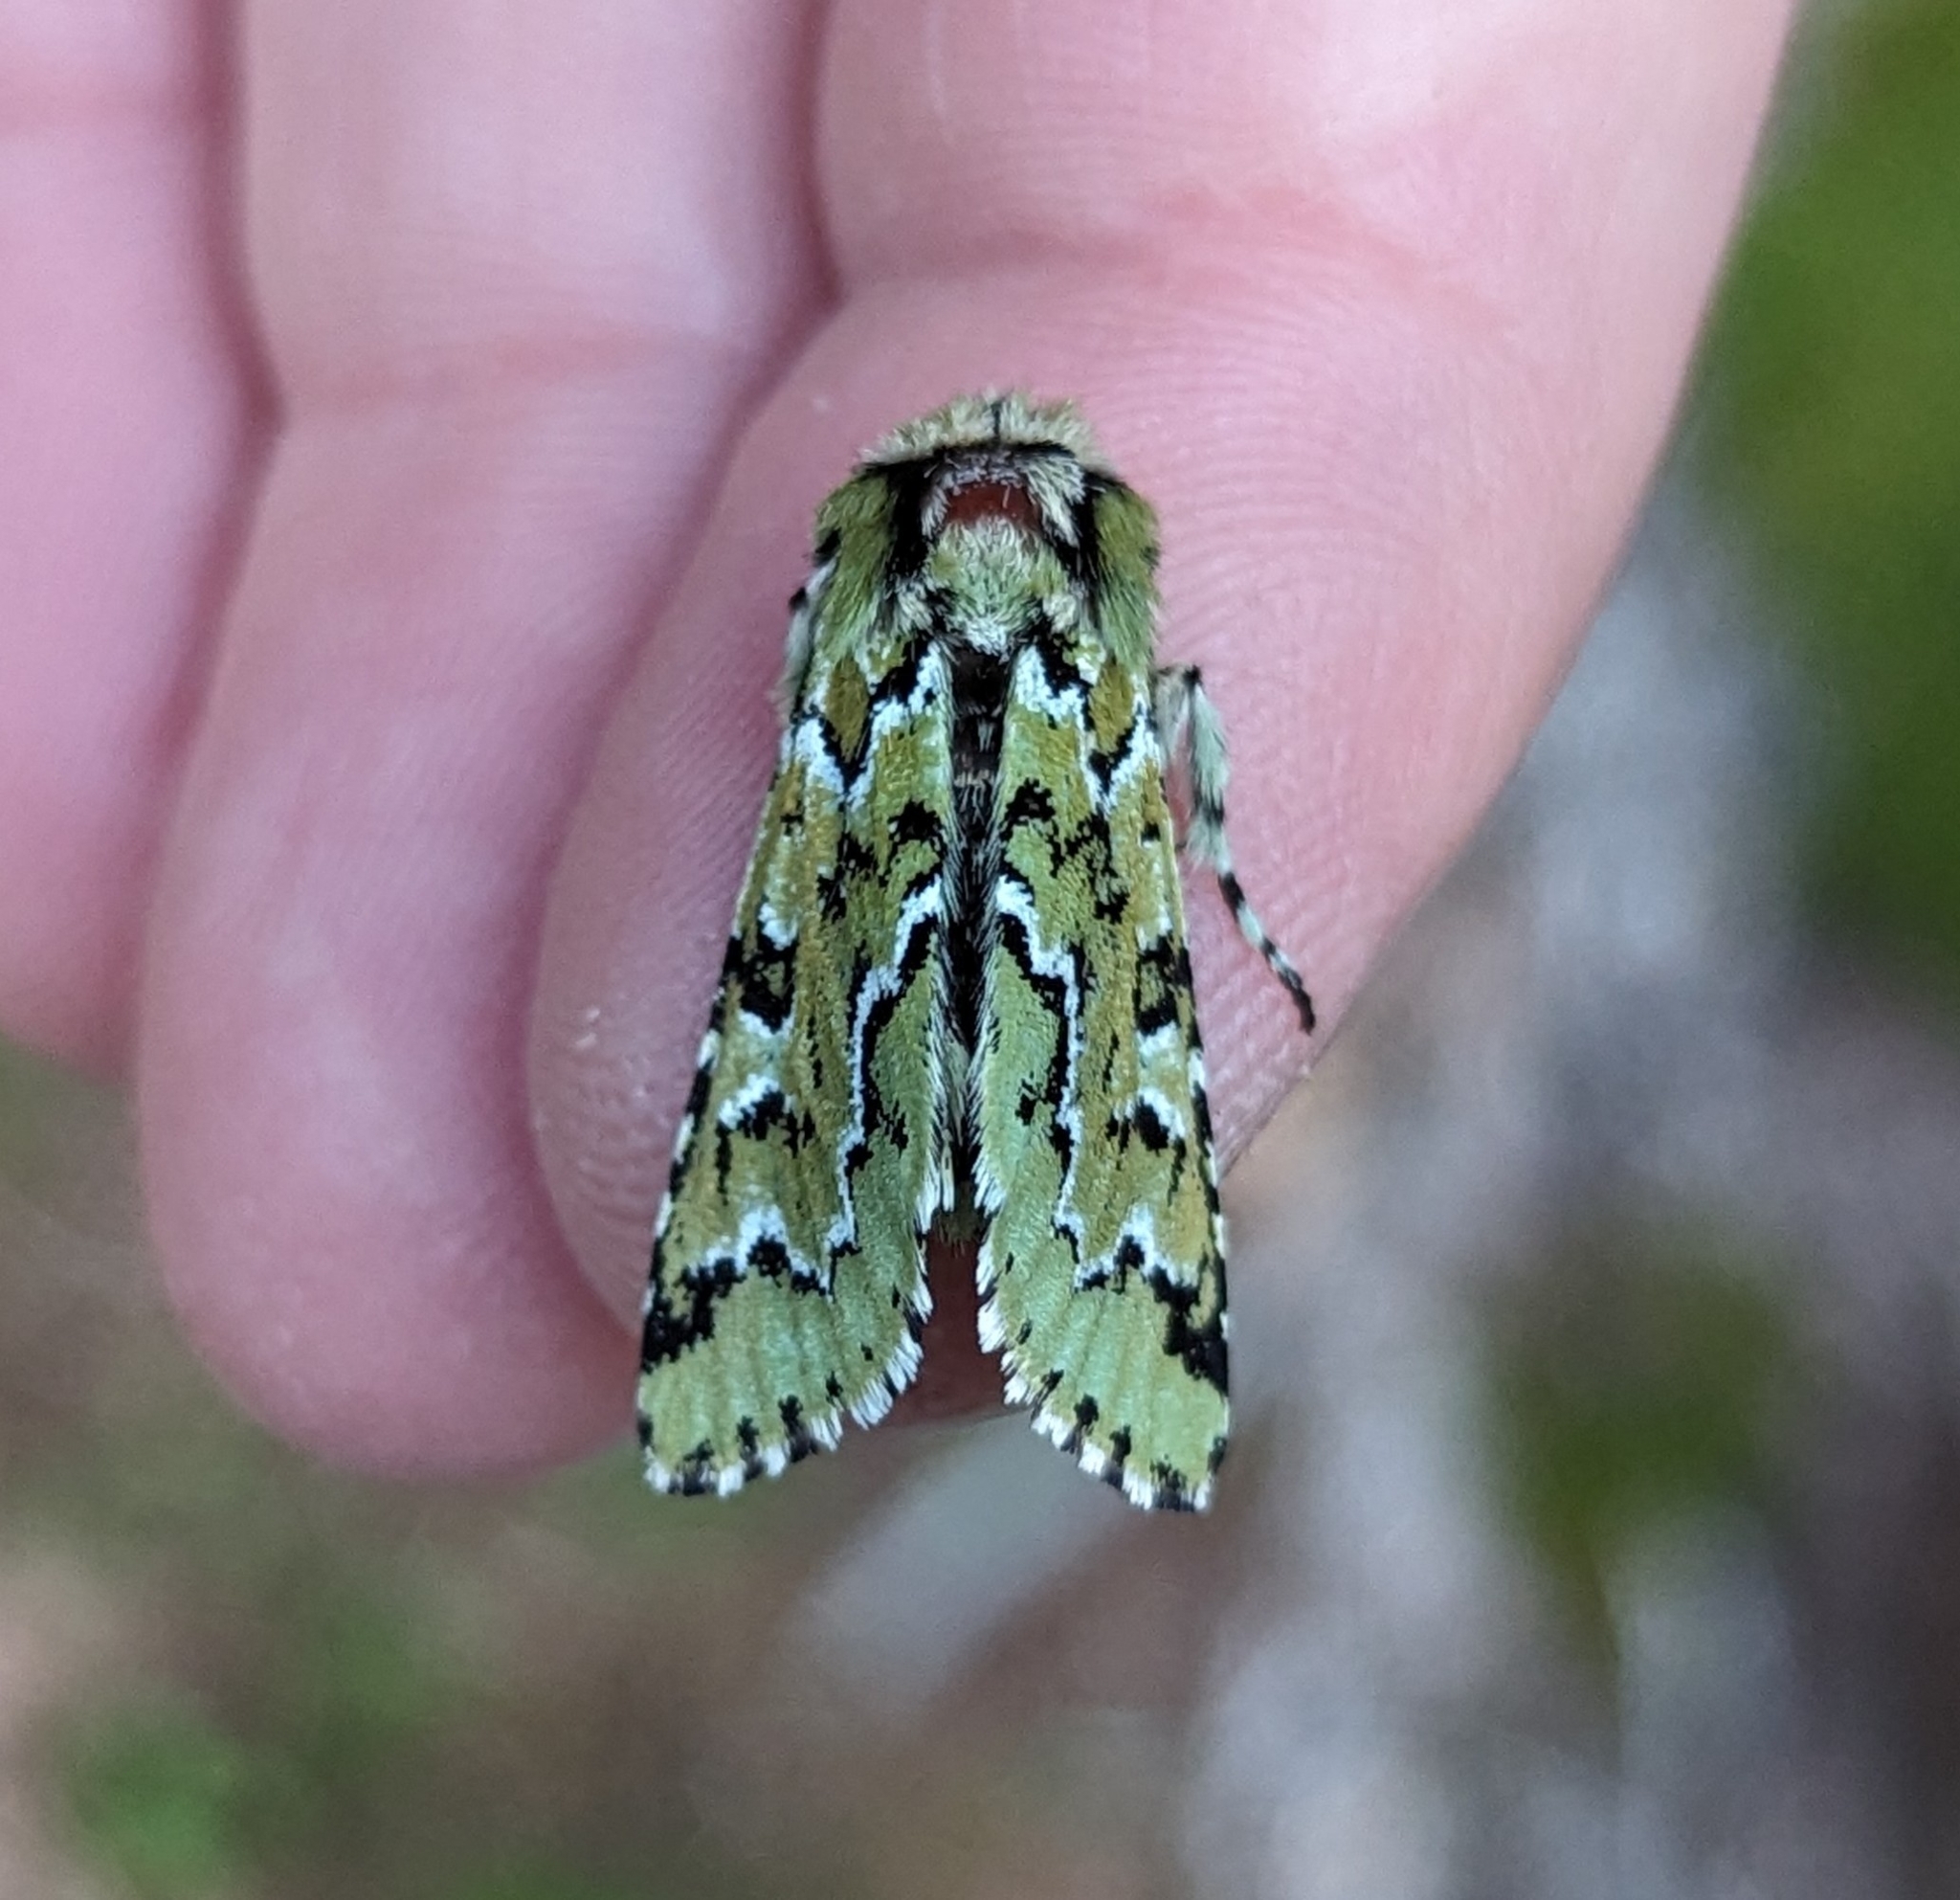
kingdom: Animalia
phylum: Arthropoda
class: Insecta
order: Lepidoptera
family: Noctuidae
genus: Feralia
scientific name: Feralia deceptiva
